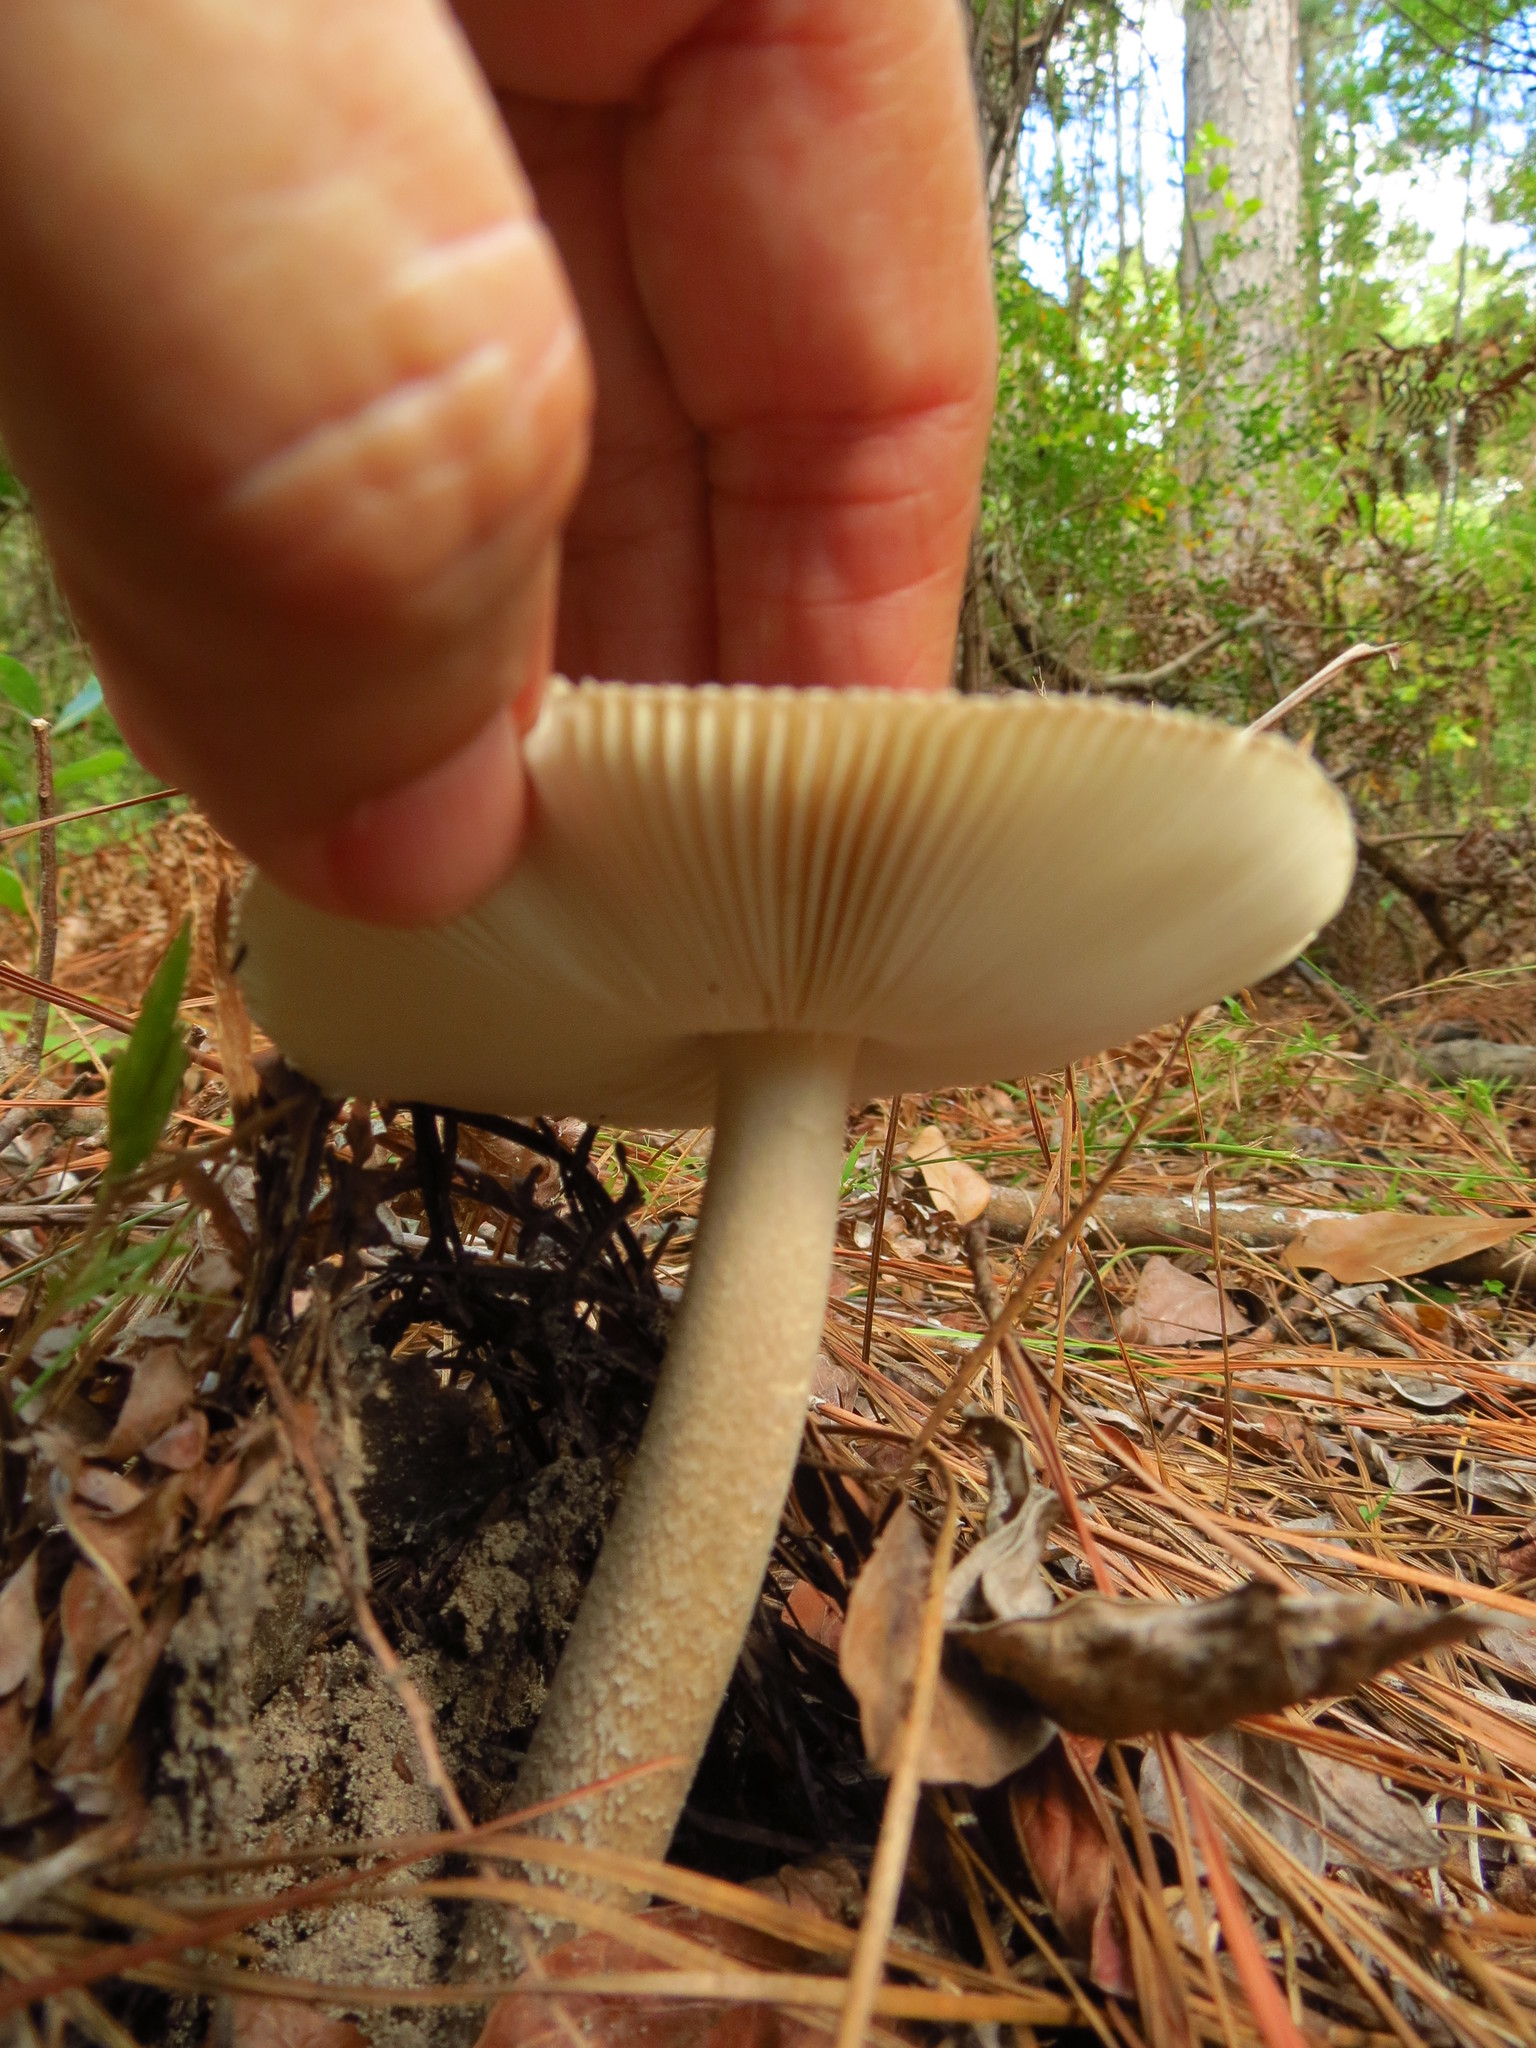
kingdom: Fungi
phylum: Basidiomycota
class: Agaricomycetes
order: Agaricales
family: Amanitaceae
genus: Amanita
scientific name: Amanita vaginata
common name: Grisette
